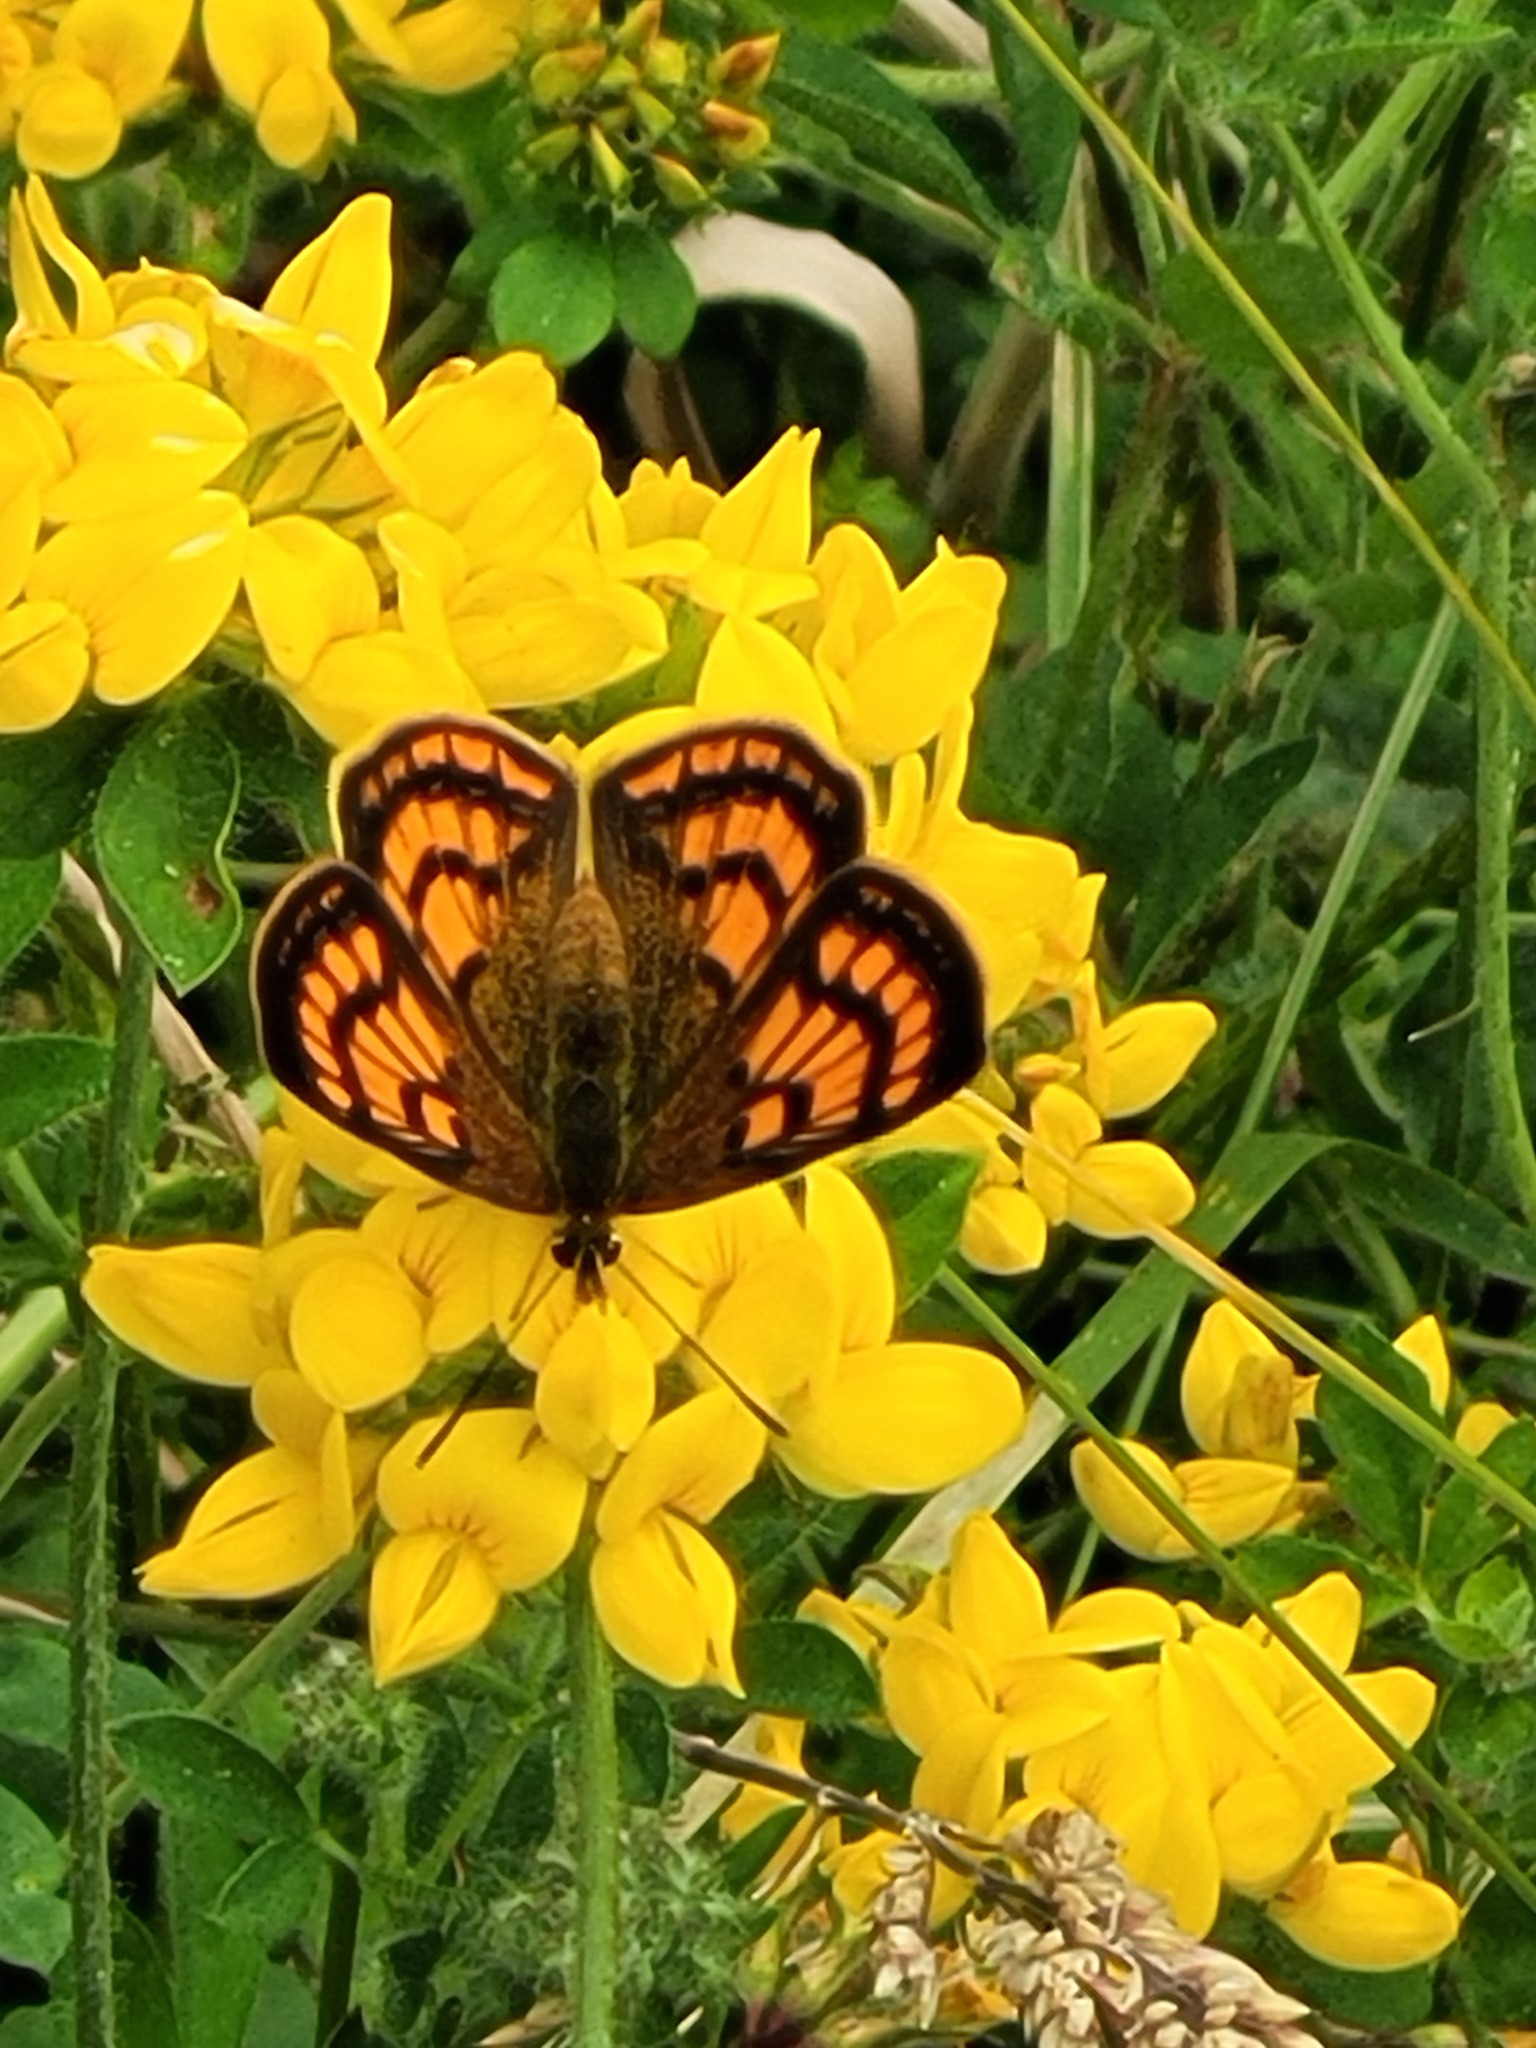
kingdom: Animalia
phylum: Arthropoda
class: Insecta
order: Lepidoptera
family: Lycaenidae
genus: Lycaena
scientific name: Lycaena salustius
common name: North island coastal copper
